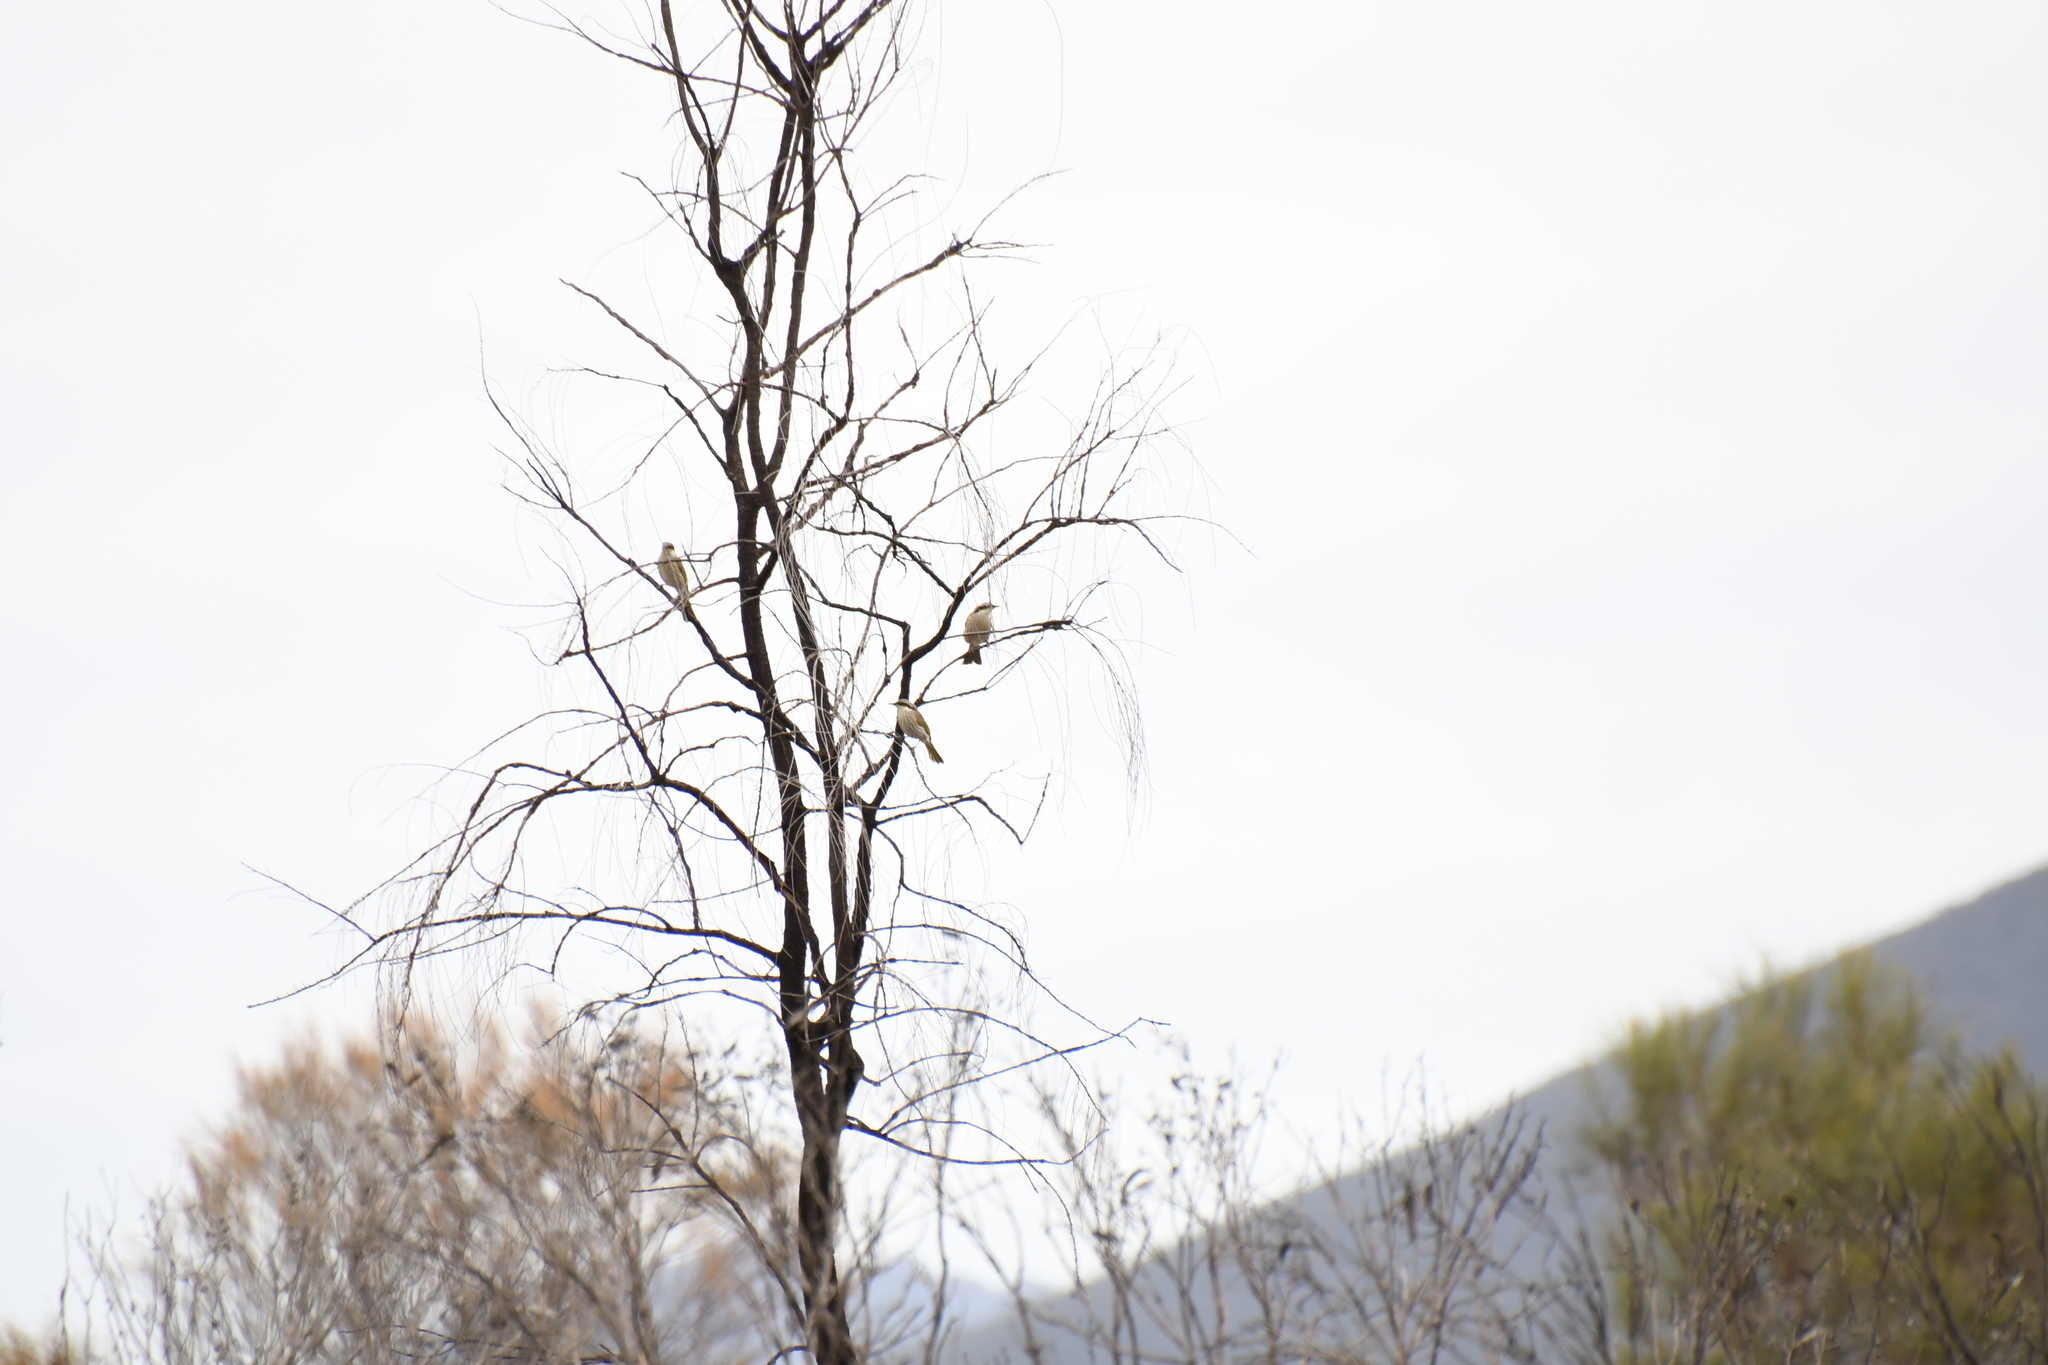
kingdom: Animalia
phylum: Chordata
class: Aves
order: Passeriformes
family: Meliphagidae
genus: Gavicalis
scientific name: Gavicalis virescens
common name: Singing honeyeater
